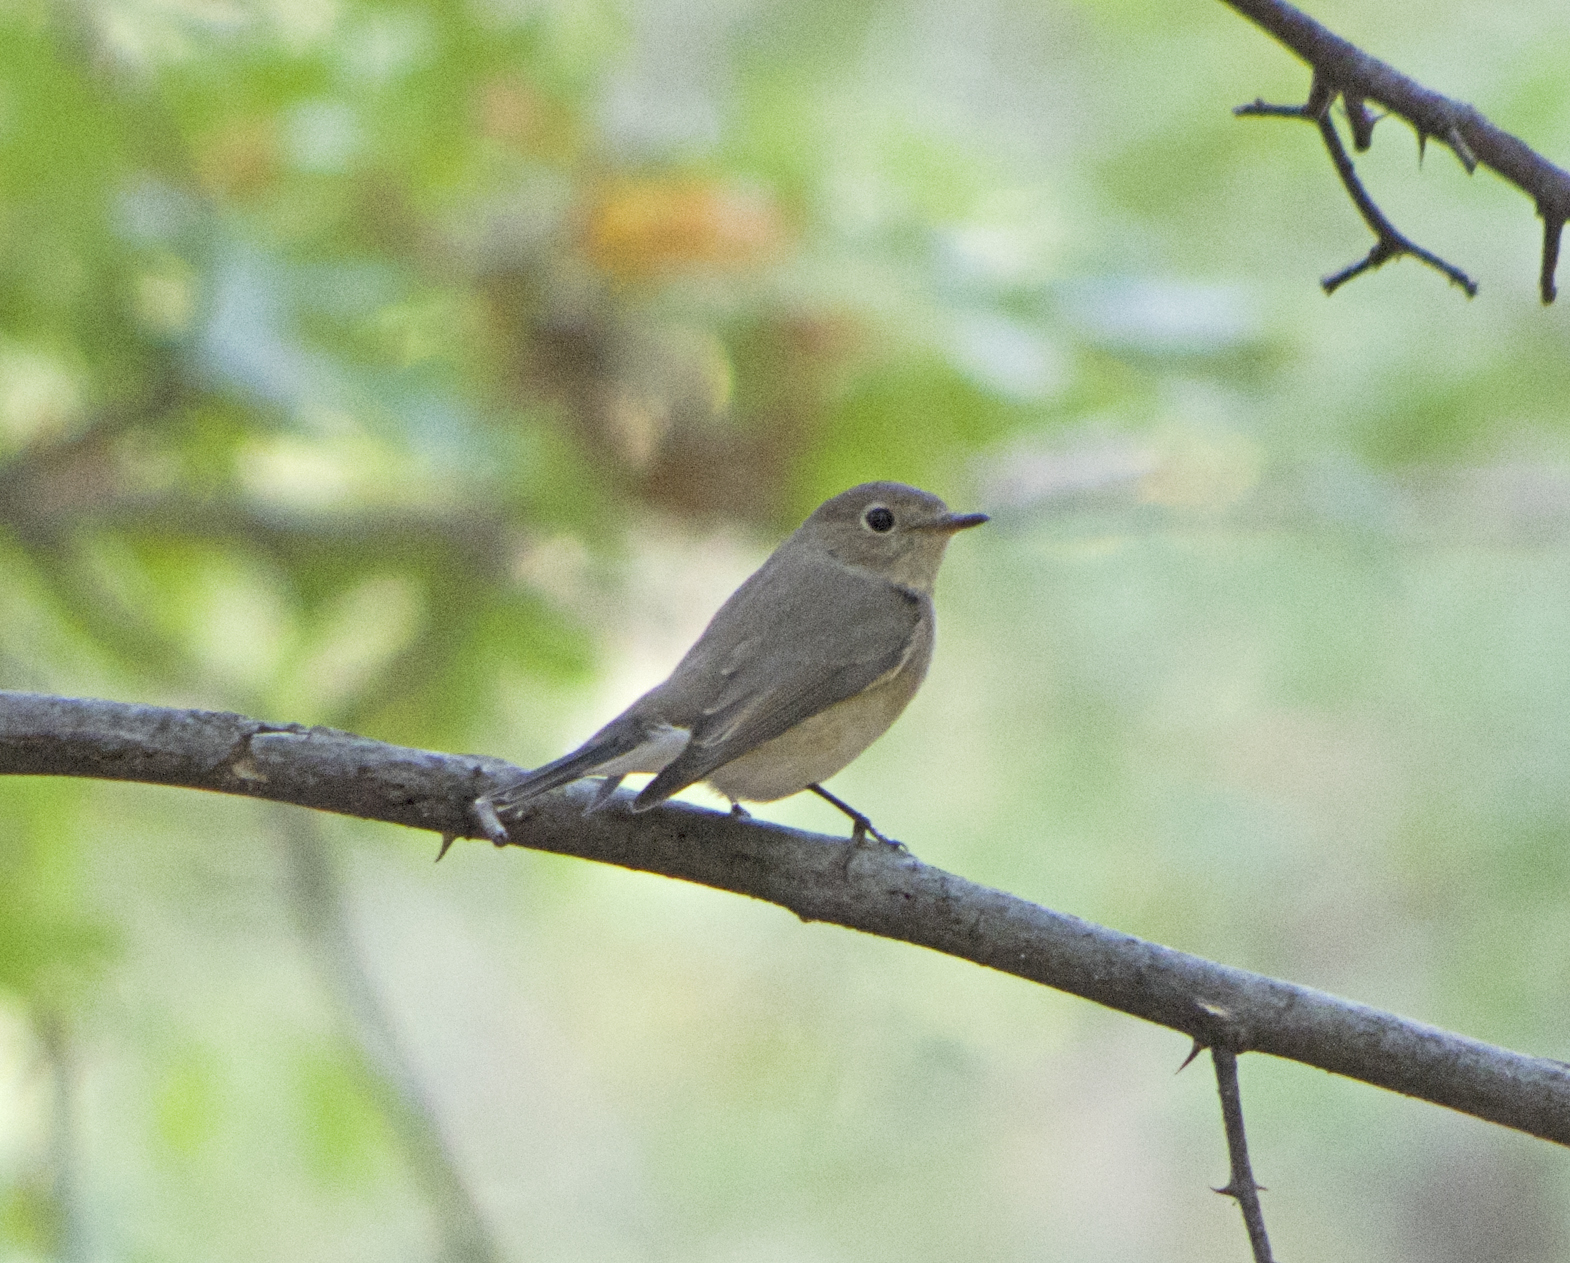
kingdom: Animalia
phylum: Chordata
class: Aves
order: Passeriformes
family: Muscicapidae
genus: Ficedula
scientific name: Ficedula parva
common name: Red-breasted flycatcher
